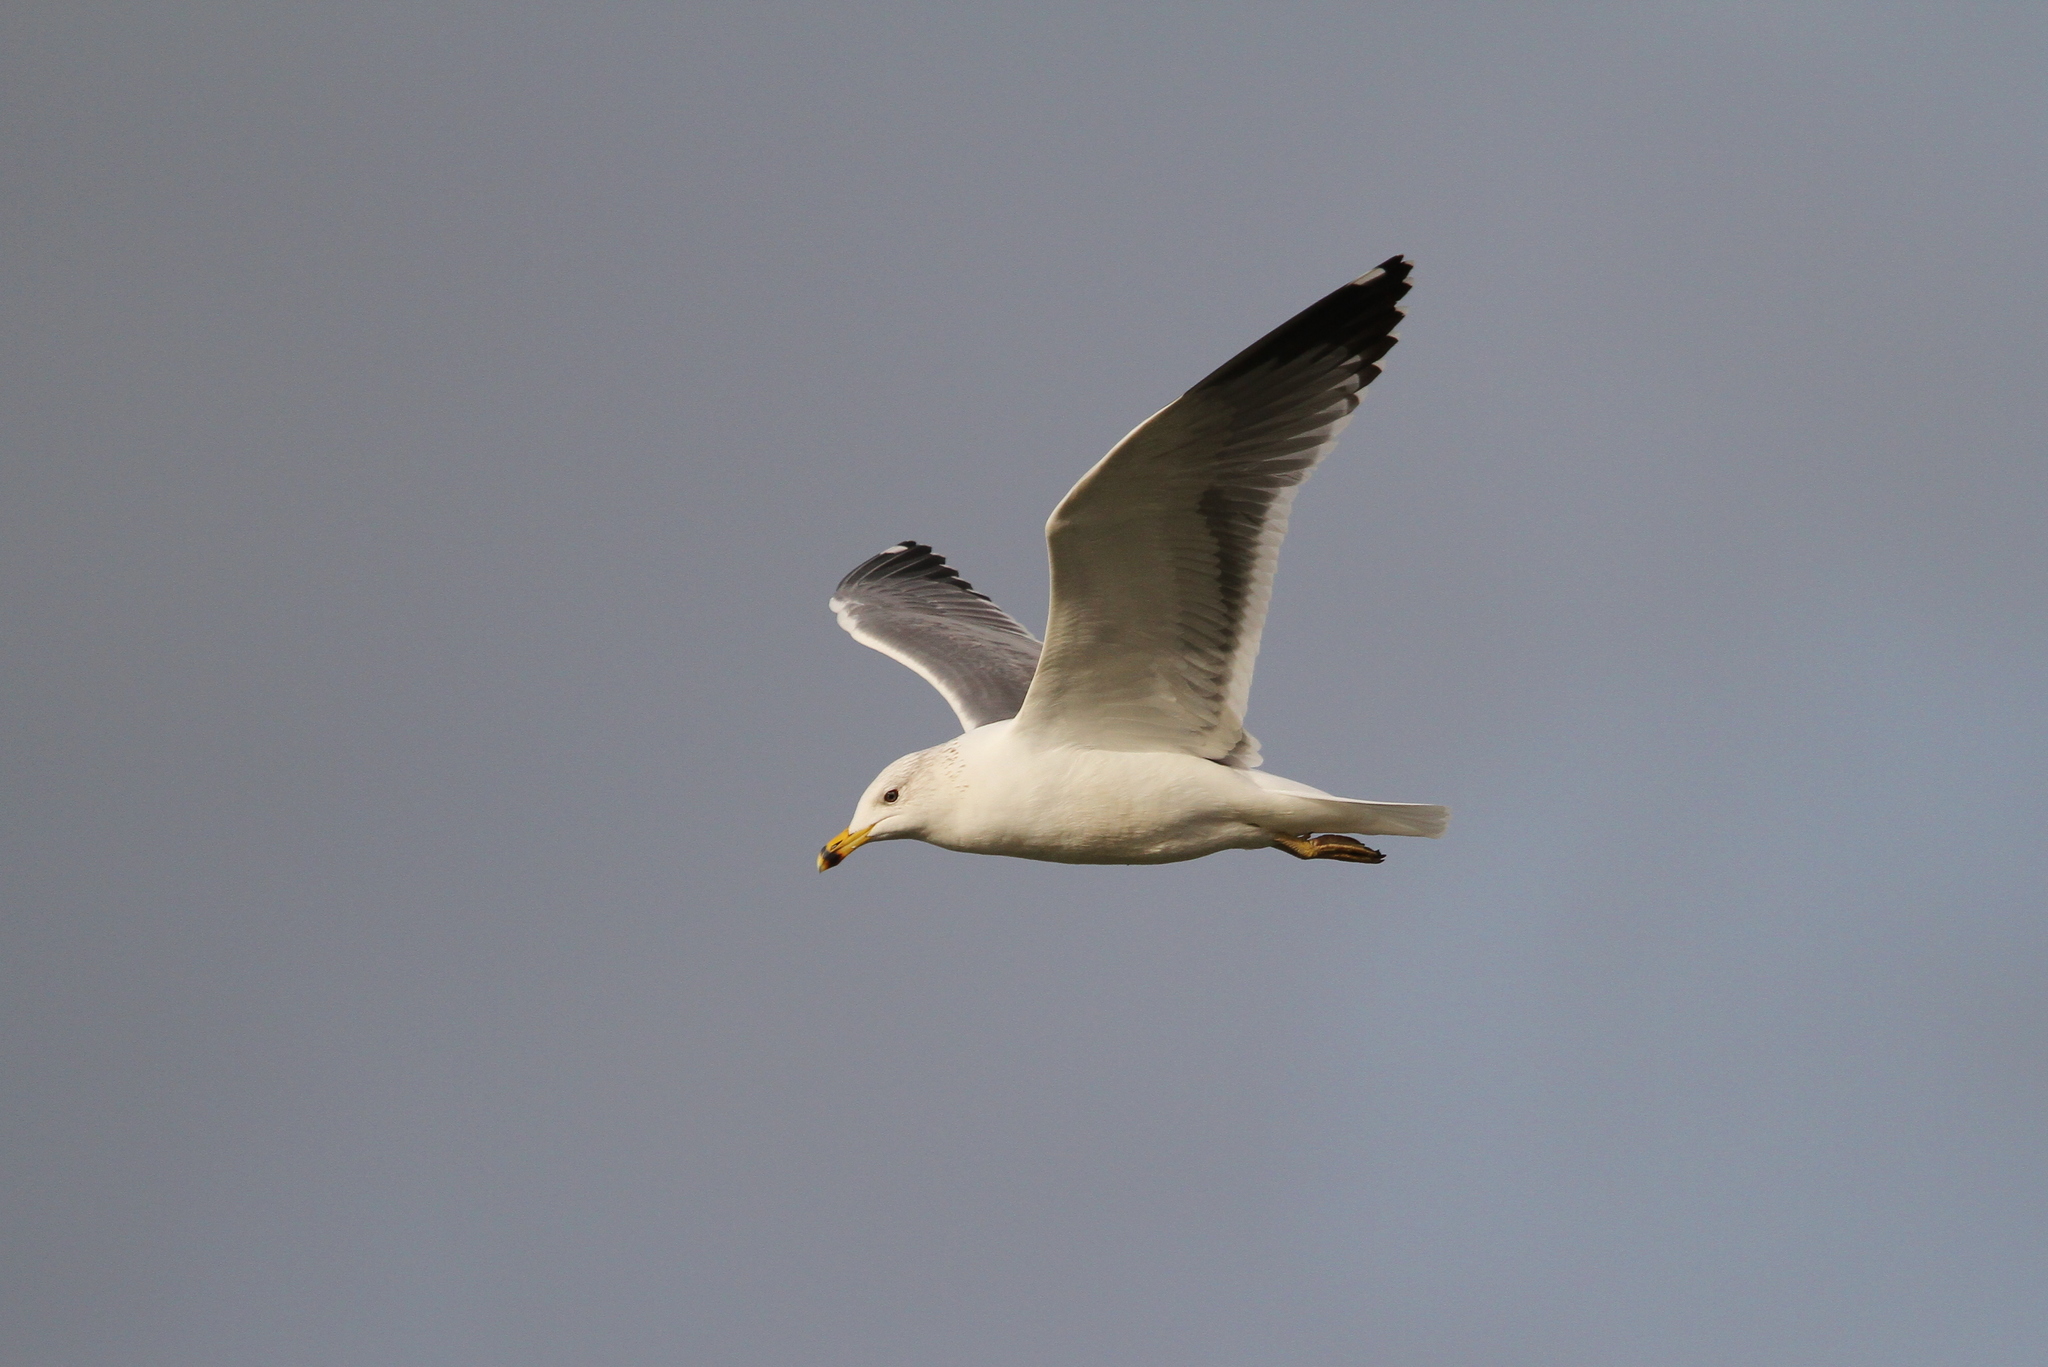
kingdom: Animalia
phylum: Chordata
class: Aves
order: Charadriiformes
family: Laridae
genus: Larus
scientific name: Larus armenicus
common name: Armenian gull
